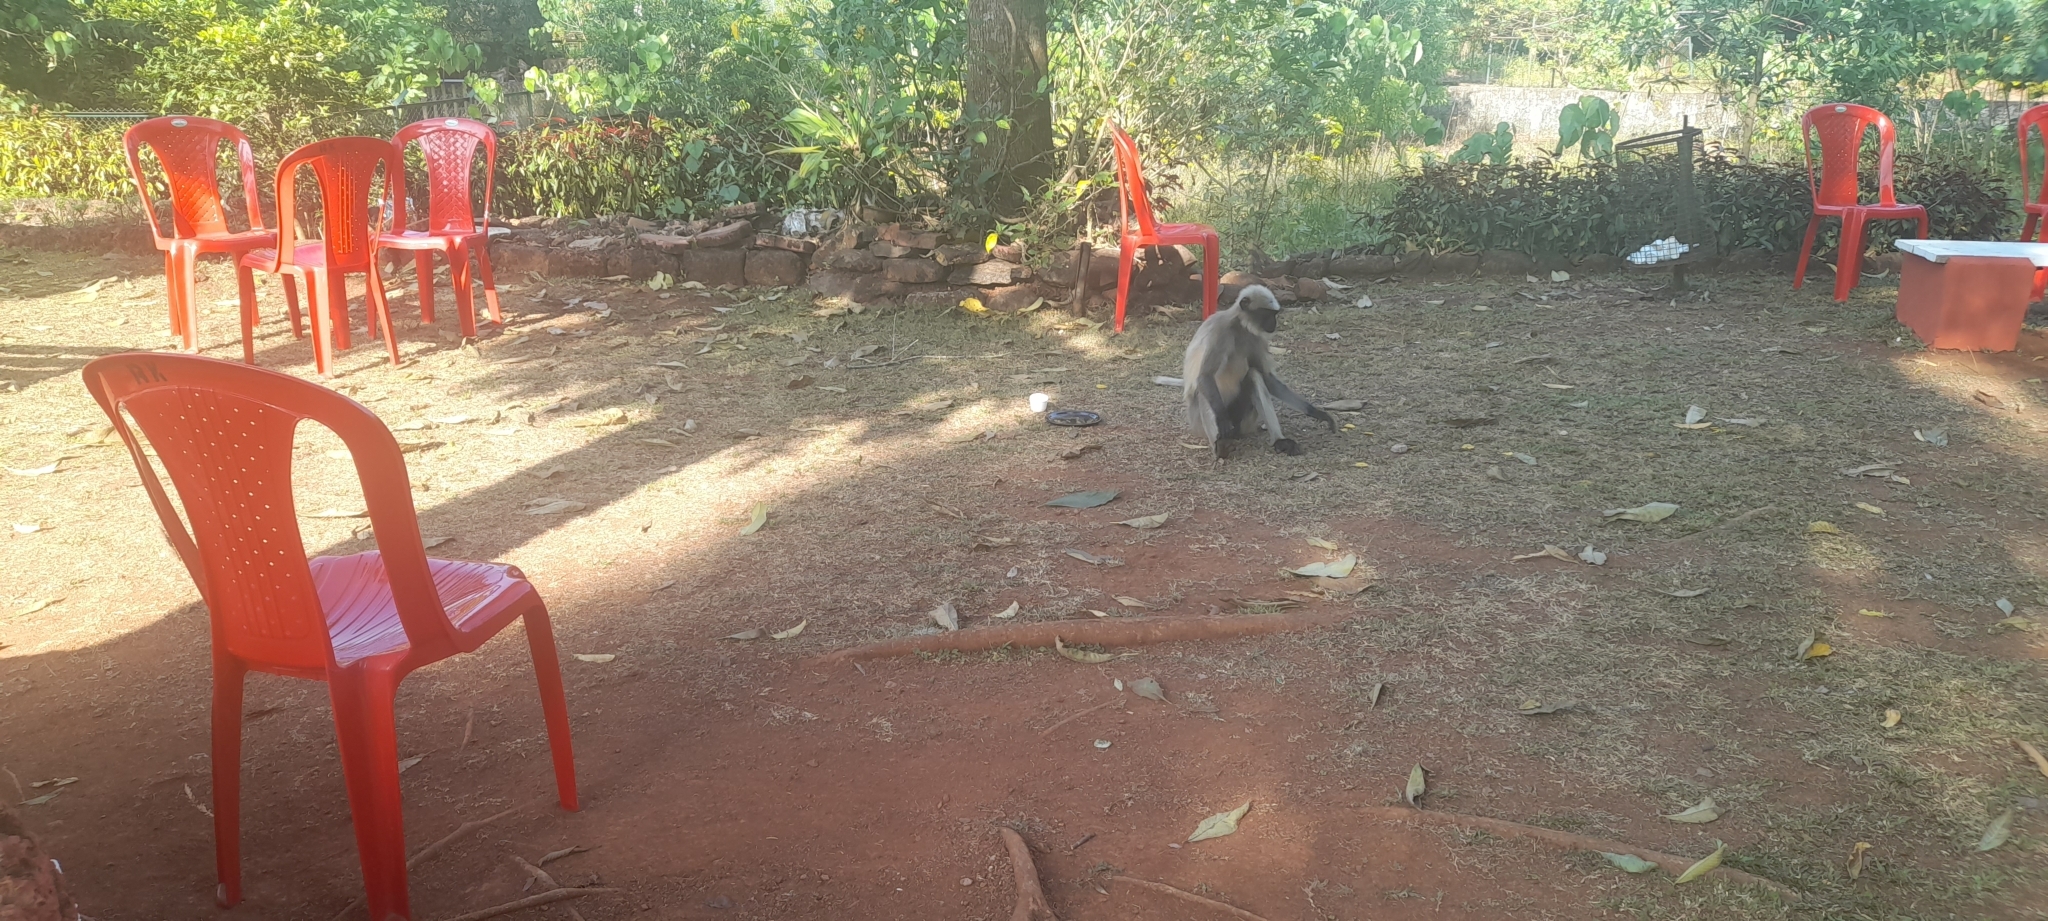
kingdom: Animalia
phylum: Chordata
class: Mammalia
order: Primates
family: Cercopithecidae
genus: Semnopithecus
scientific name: Semnopithecus hypoleucos
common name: Black-footed gray langur
